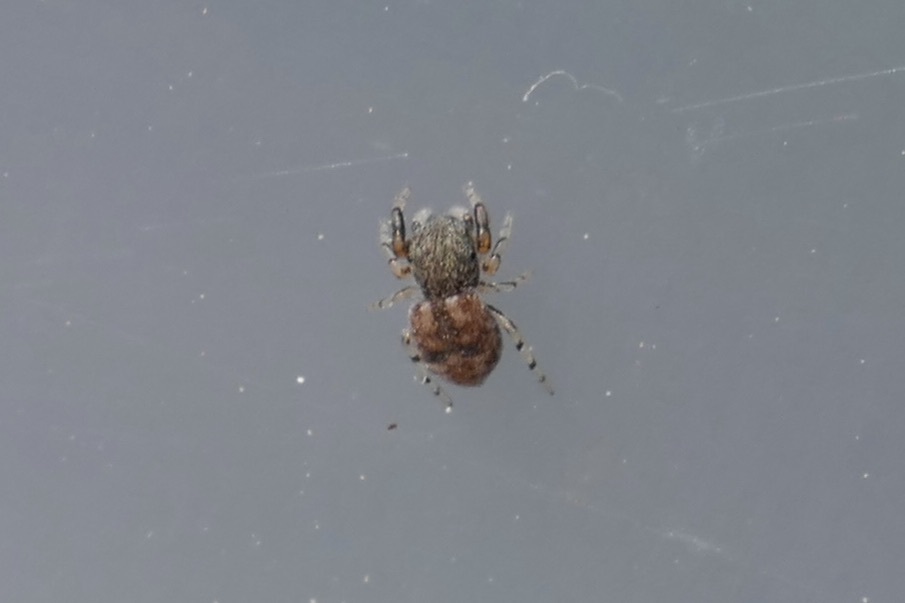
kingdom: Animalia
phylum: Arthropoda
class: Arachnida
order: Araneae
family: Salticidae
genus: Ballus
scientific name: Ballus chalybeius
